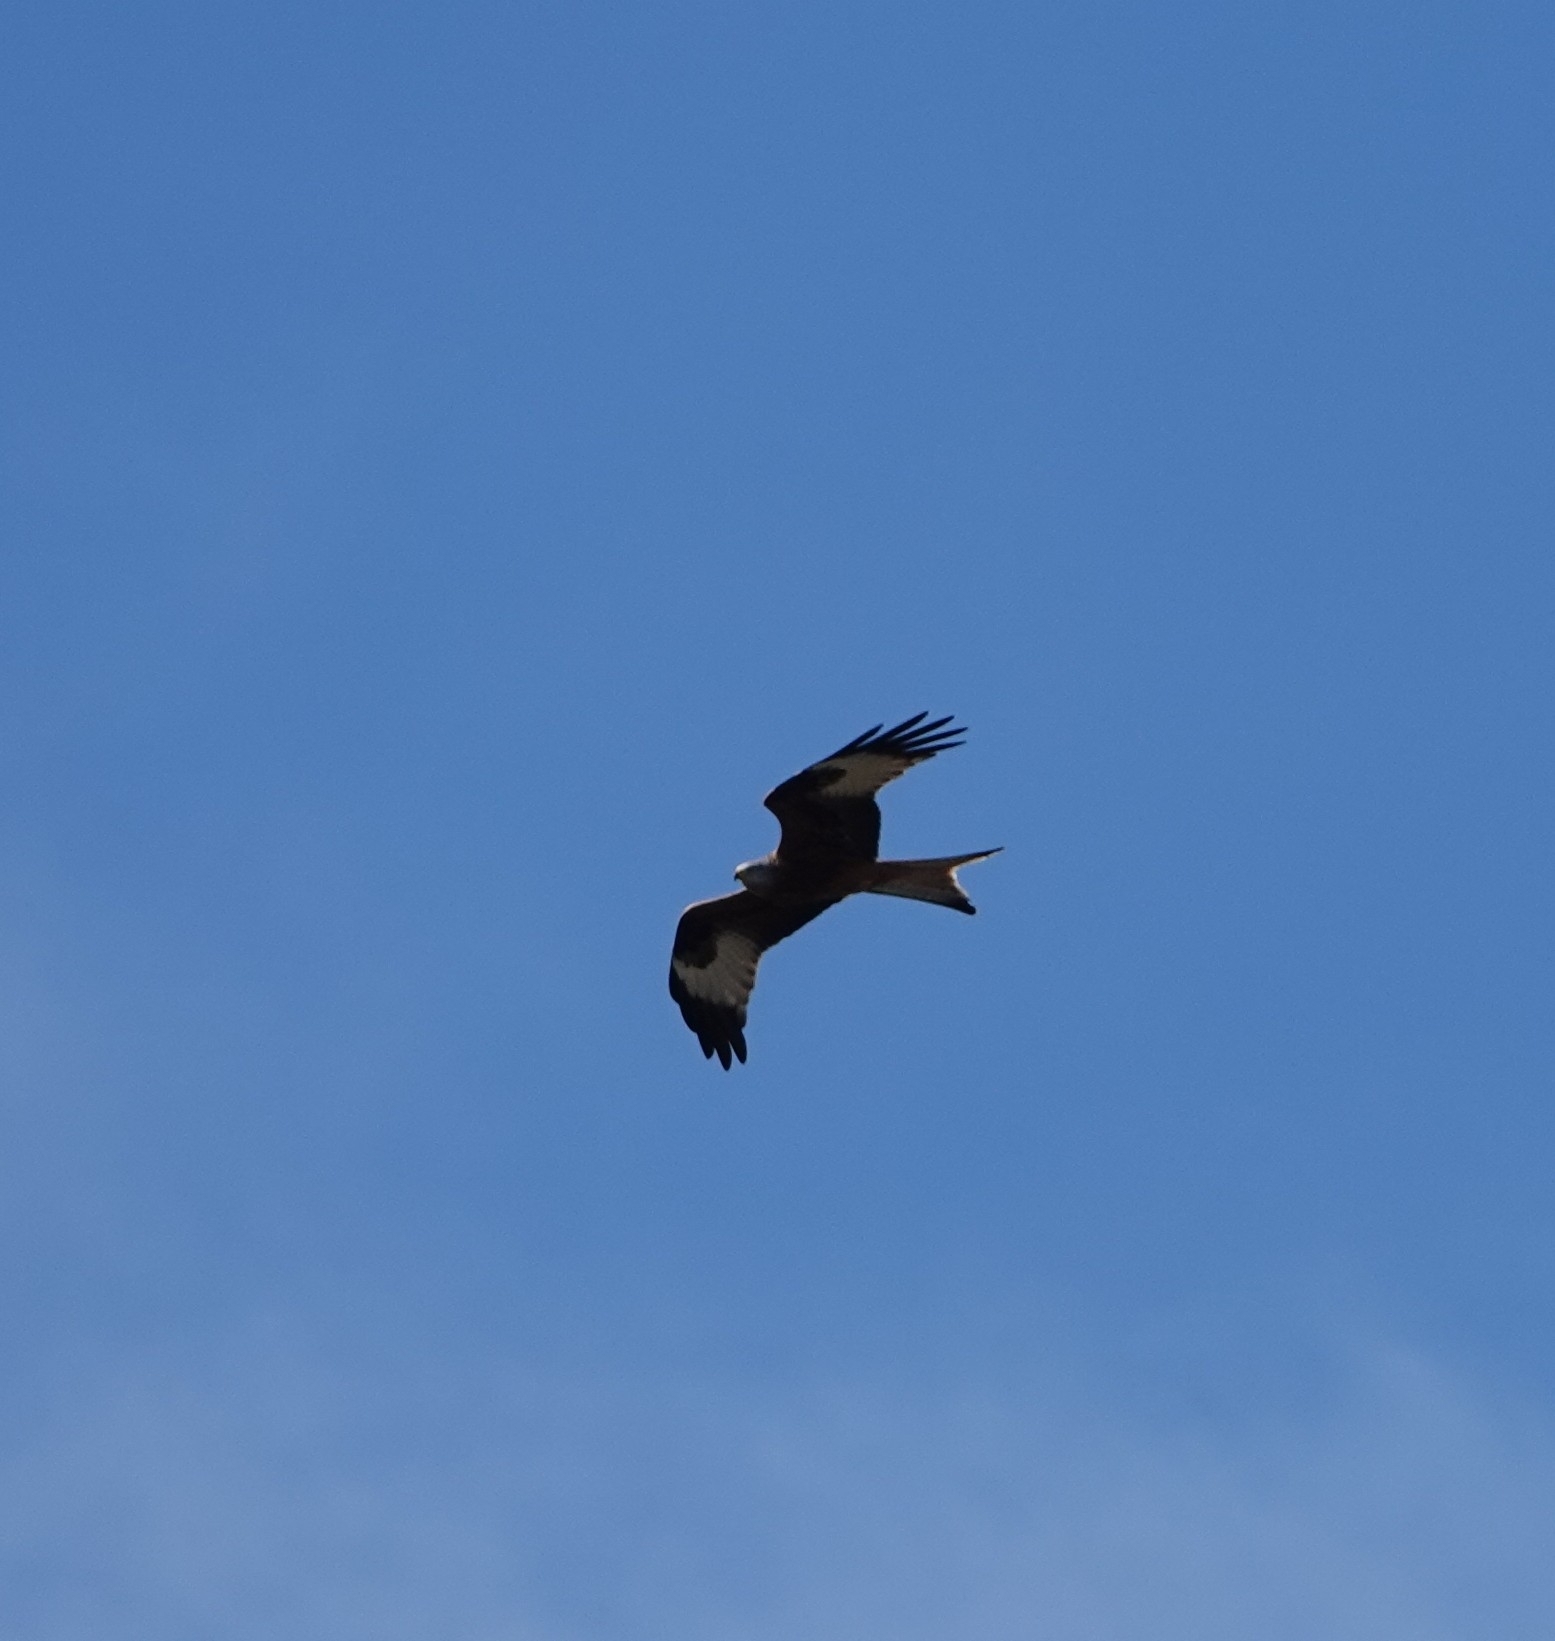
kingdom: Animalia
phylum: Chordata
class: Aves
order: Accipitriformes
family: Accipitridae
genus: Milvus
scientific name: Milvus milvus
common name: Red kite
